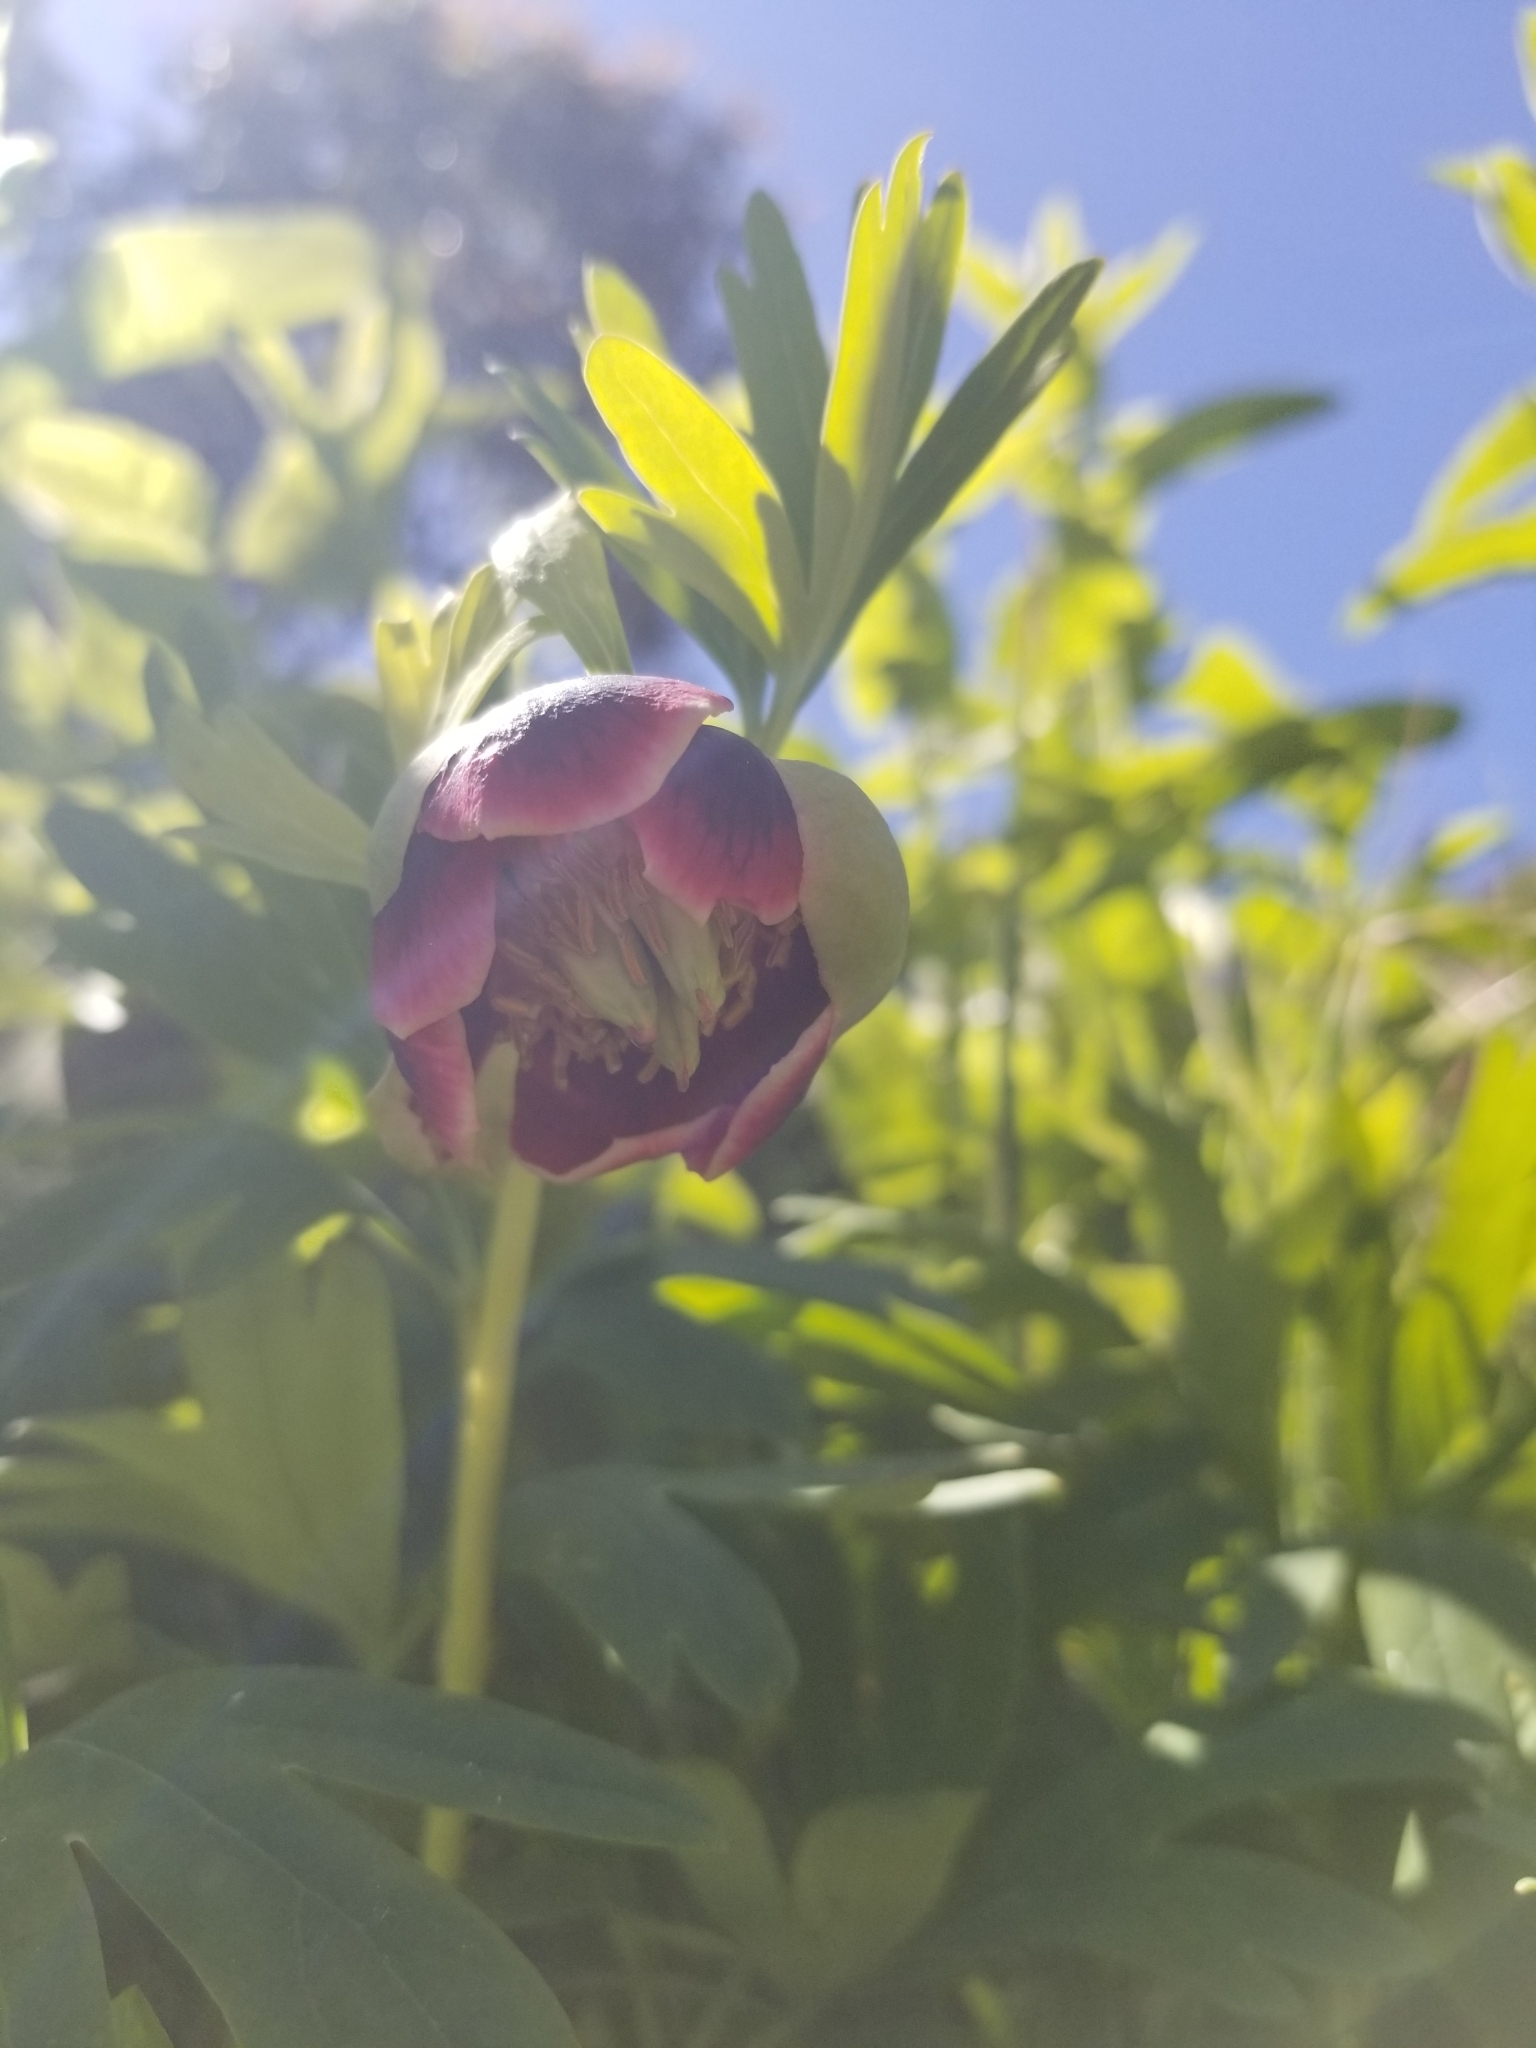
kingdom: Plantae
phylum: Tracheophyta
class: Magnoliopsida
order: Saxifragales
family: Paeoniaceae
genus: Paeonia
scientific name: Paeonia californica
